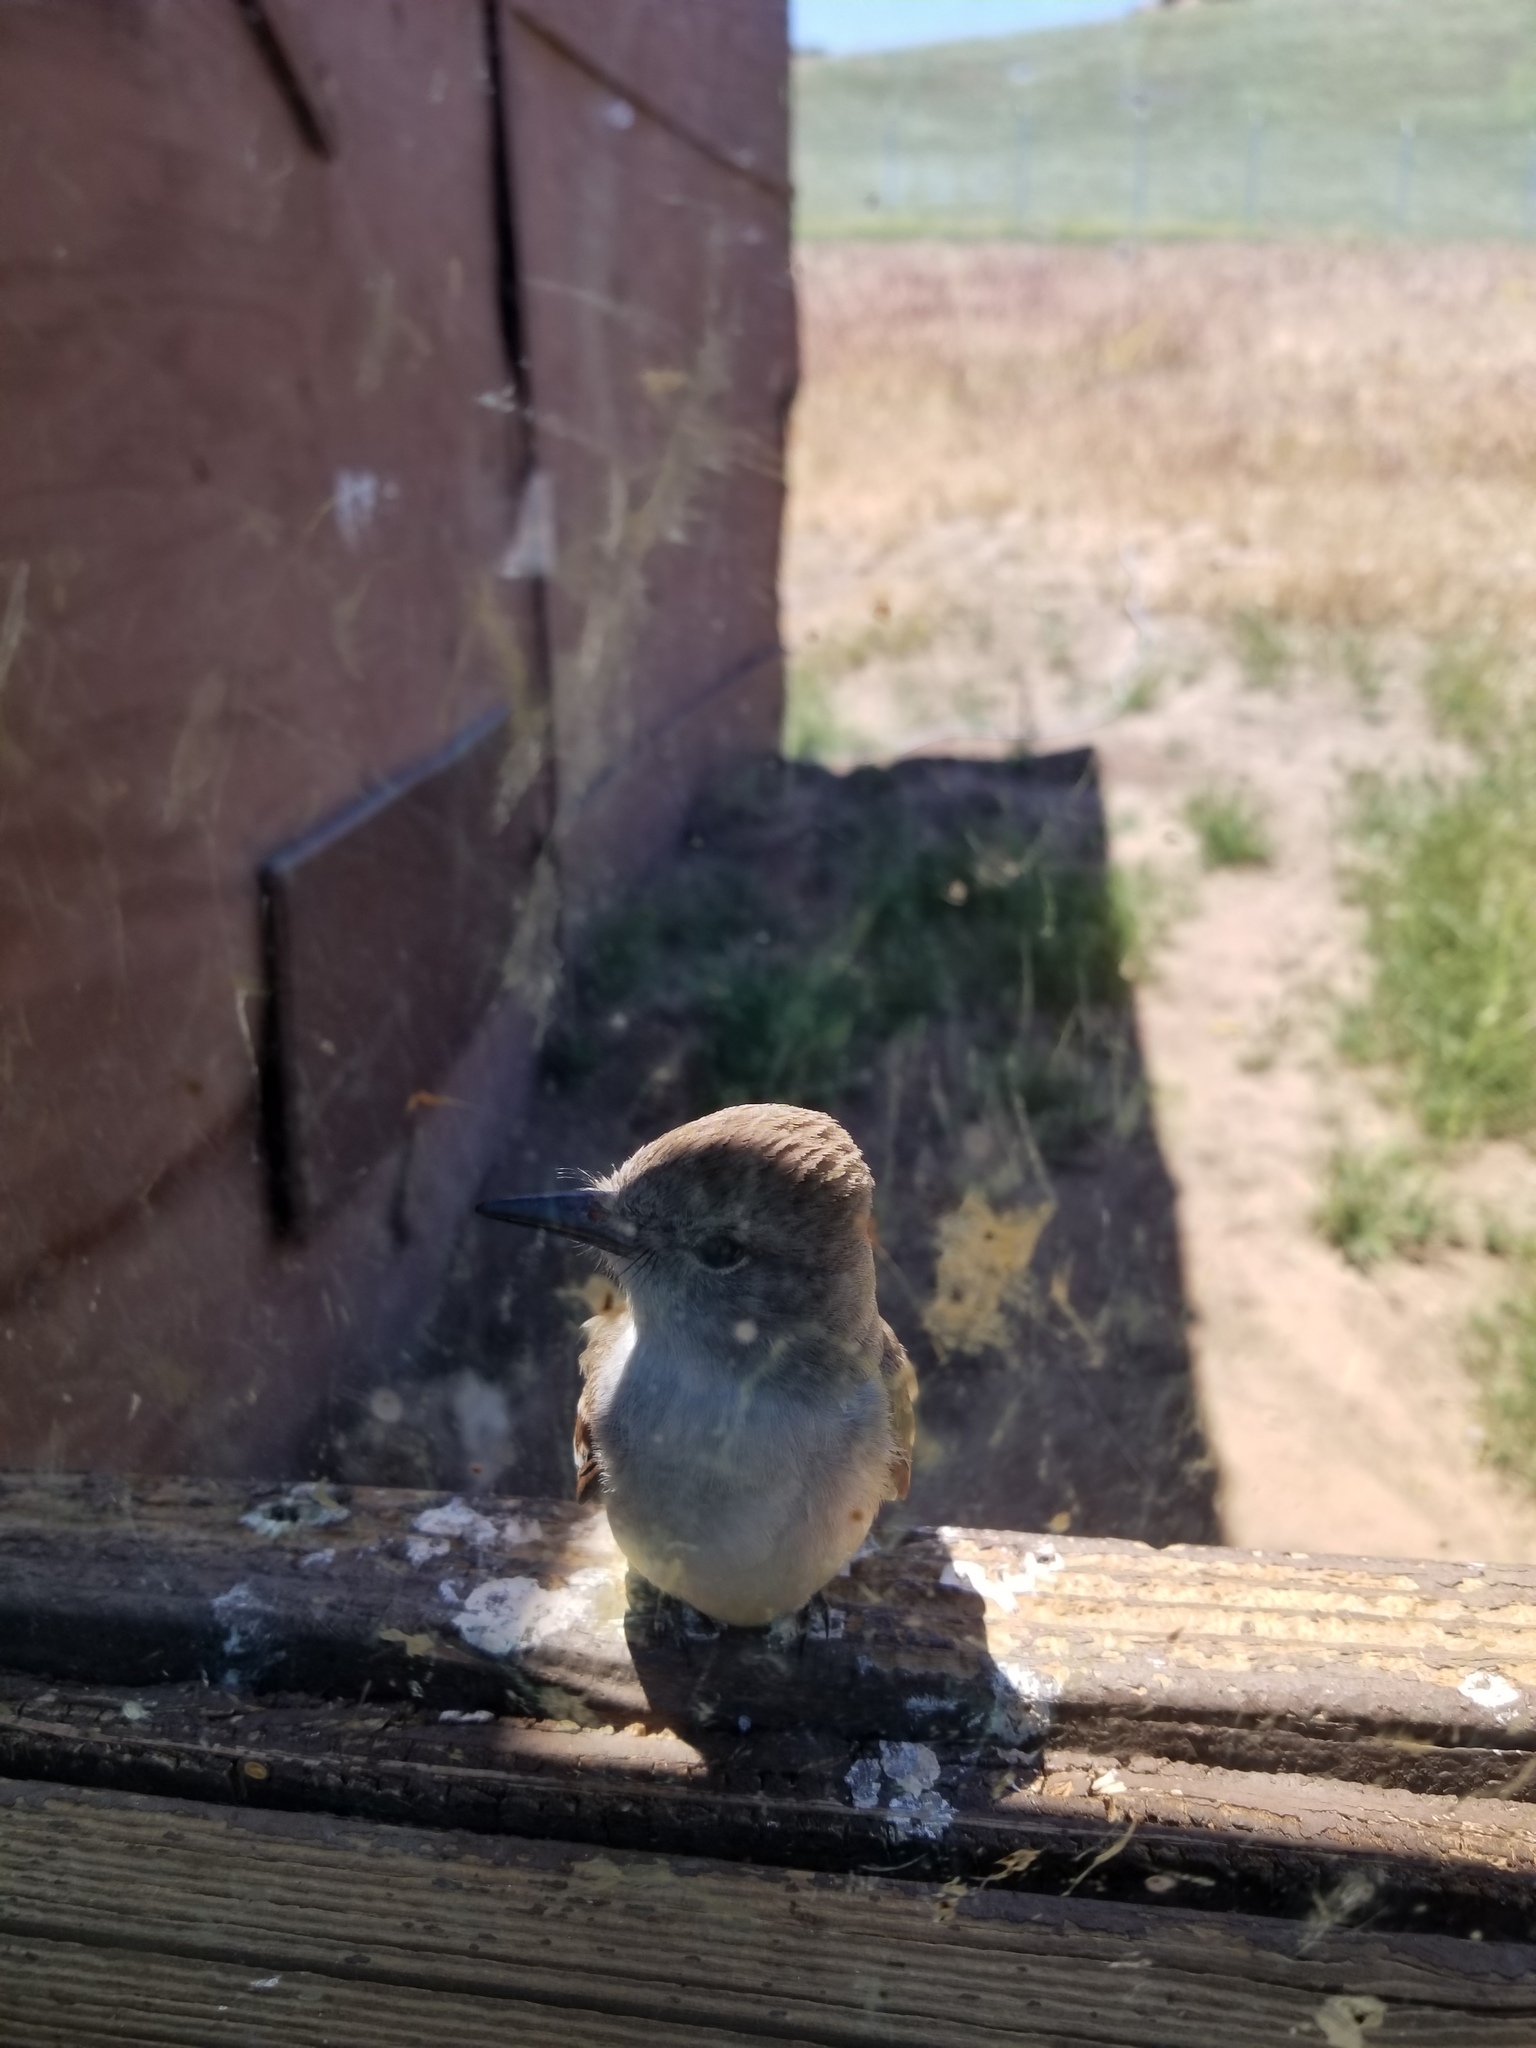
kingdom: Animalia
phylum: Chordata
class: Aves
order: Passeriformes
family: Tyrannidae
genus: Myiarchus
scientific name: Myiarchus cinerascens
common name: Ash-throated flycatcher
